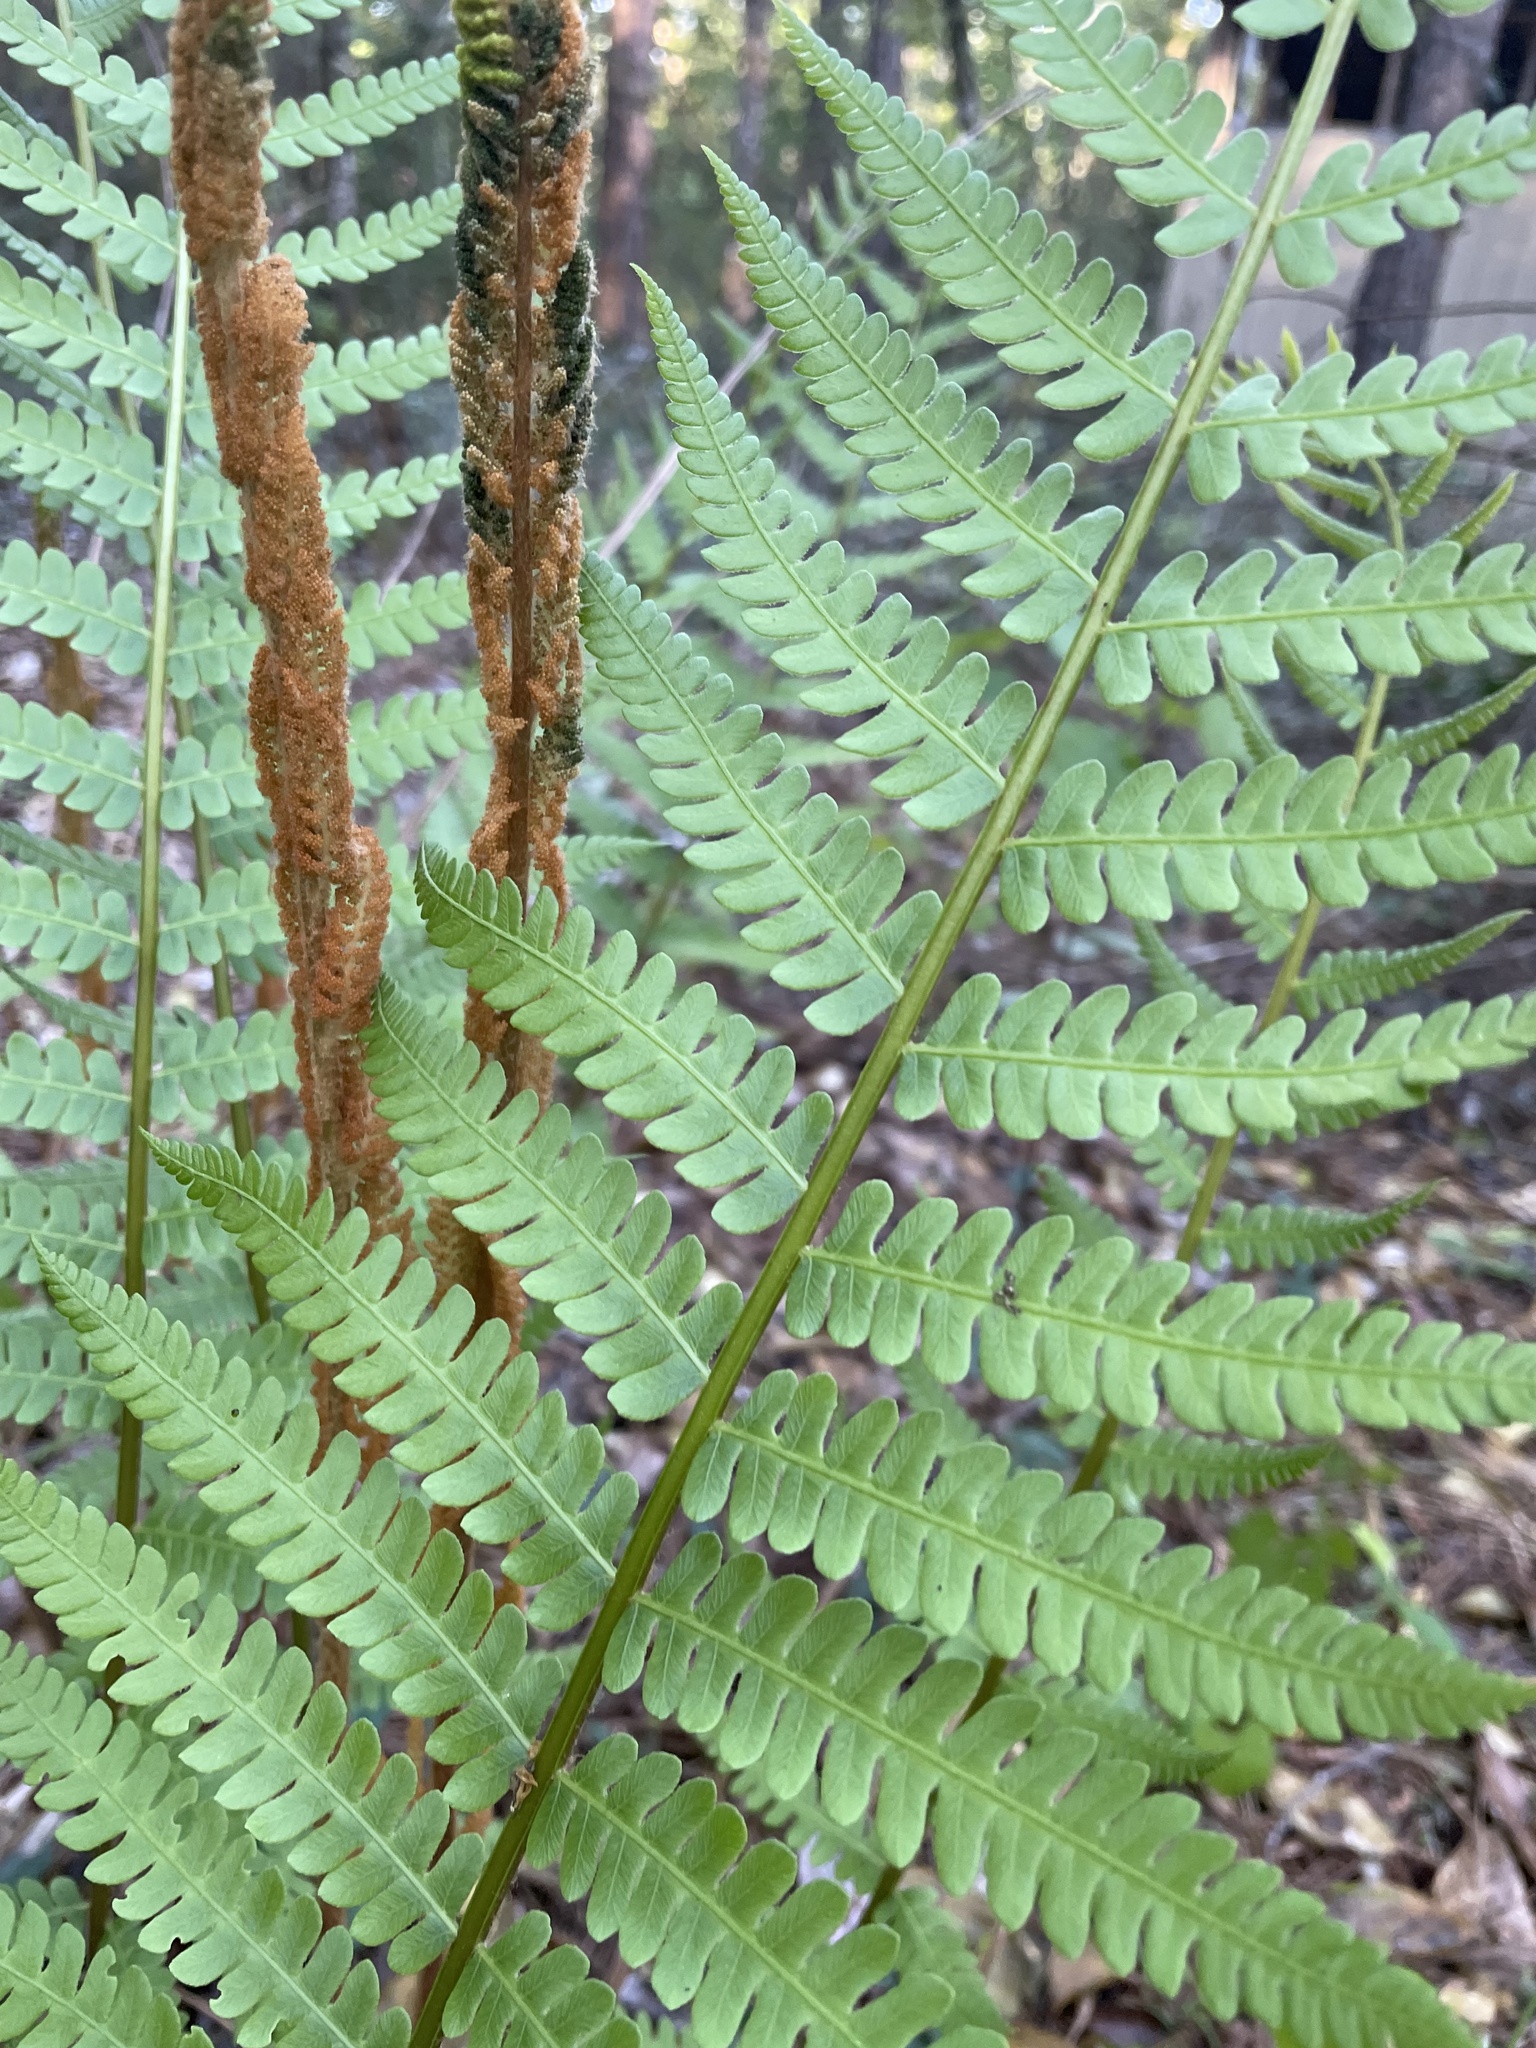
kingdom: Plantae
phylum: Tracheophyta
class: Polypodiopsida
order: Osmundales
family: Osmundaceae
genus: Osmundastrum
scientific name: Osmundastrum cinnamomeum
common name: Cinnamon fern
